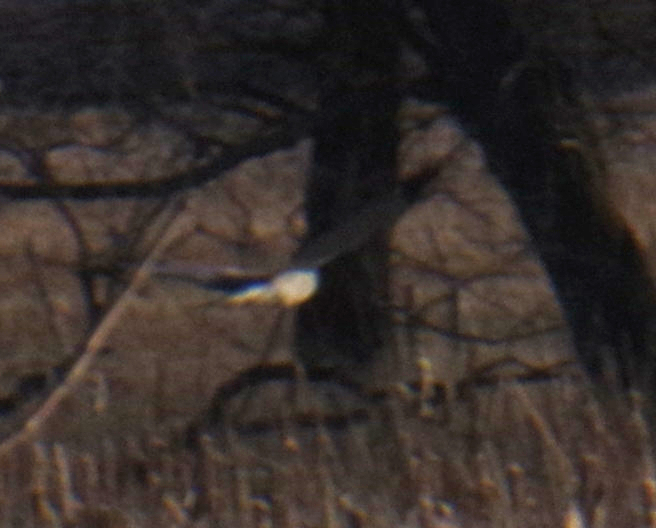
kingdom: Animalia
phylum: Chordata
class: Aves
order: Accipitriformes
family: Accipitridae
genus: Circus
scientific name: Circus cyaneus
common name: Hen harrier
